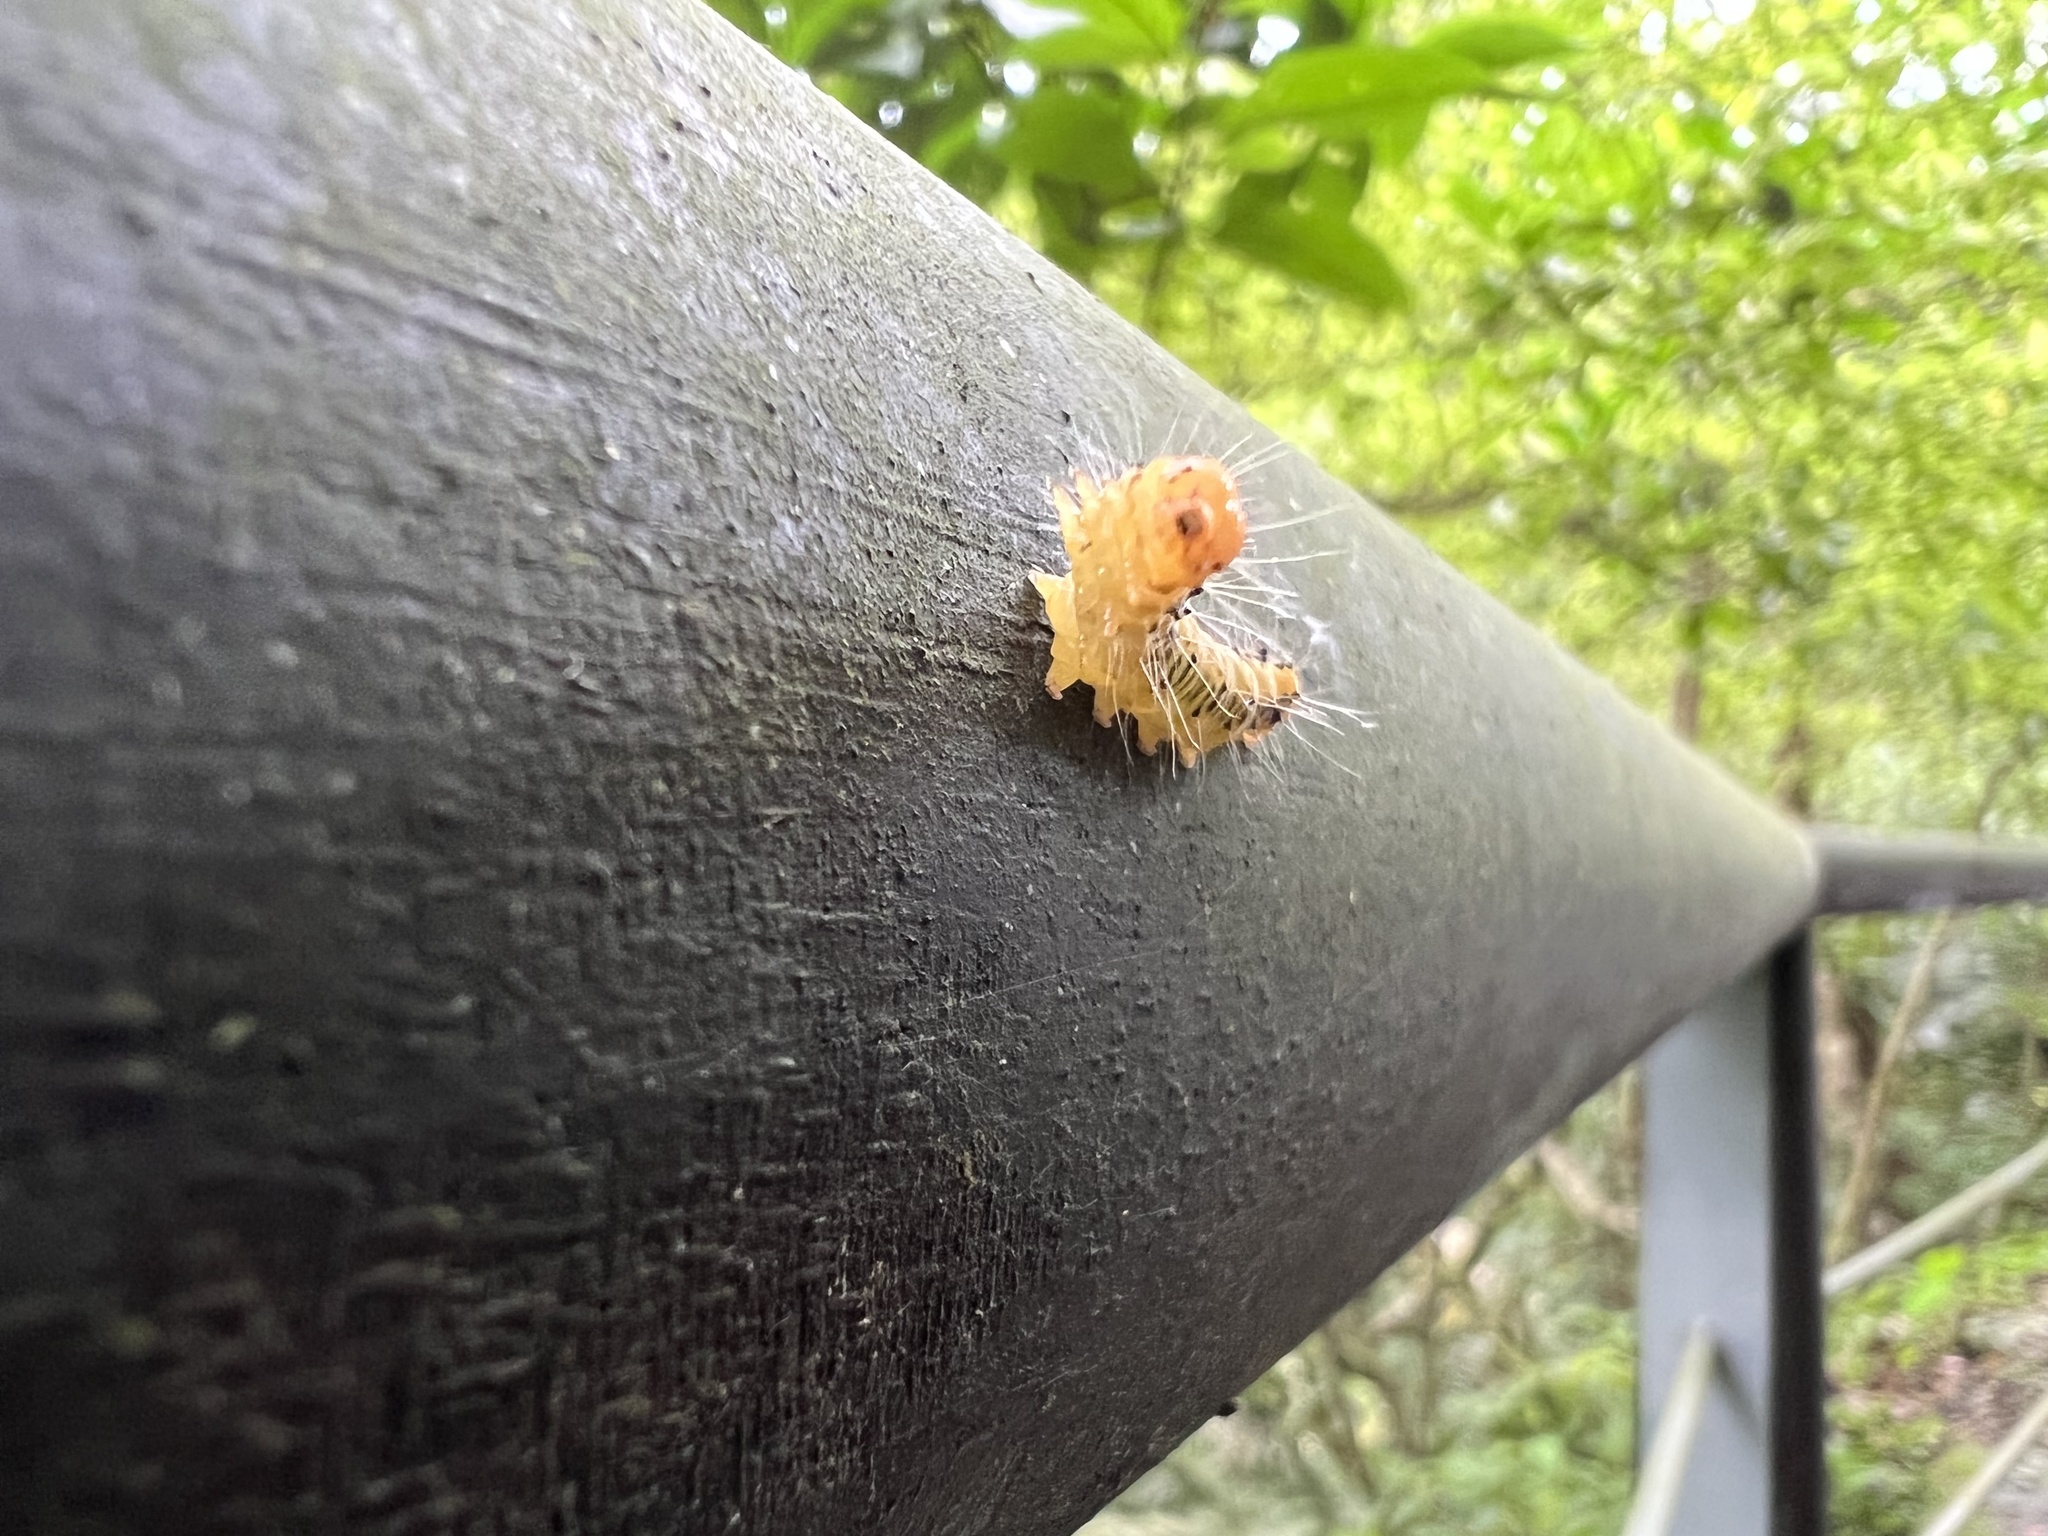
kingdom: Animalia
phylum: Arthropoda
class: Insecta
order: Lepidoptera
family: Erebidae
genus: Asota
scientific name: Asota heliconia
